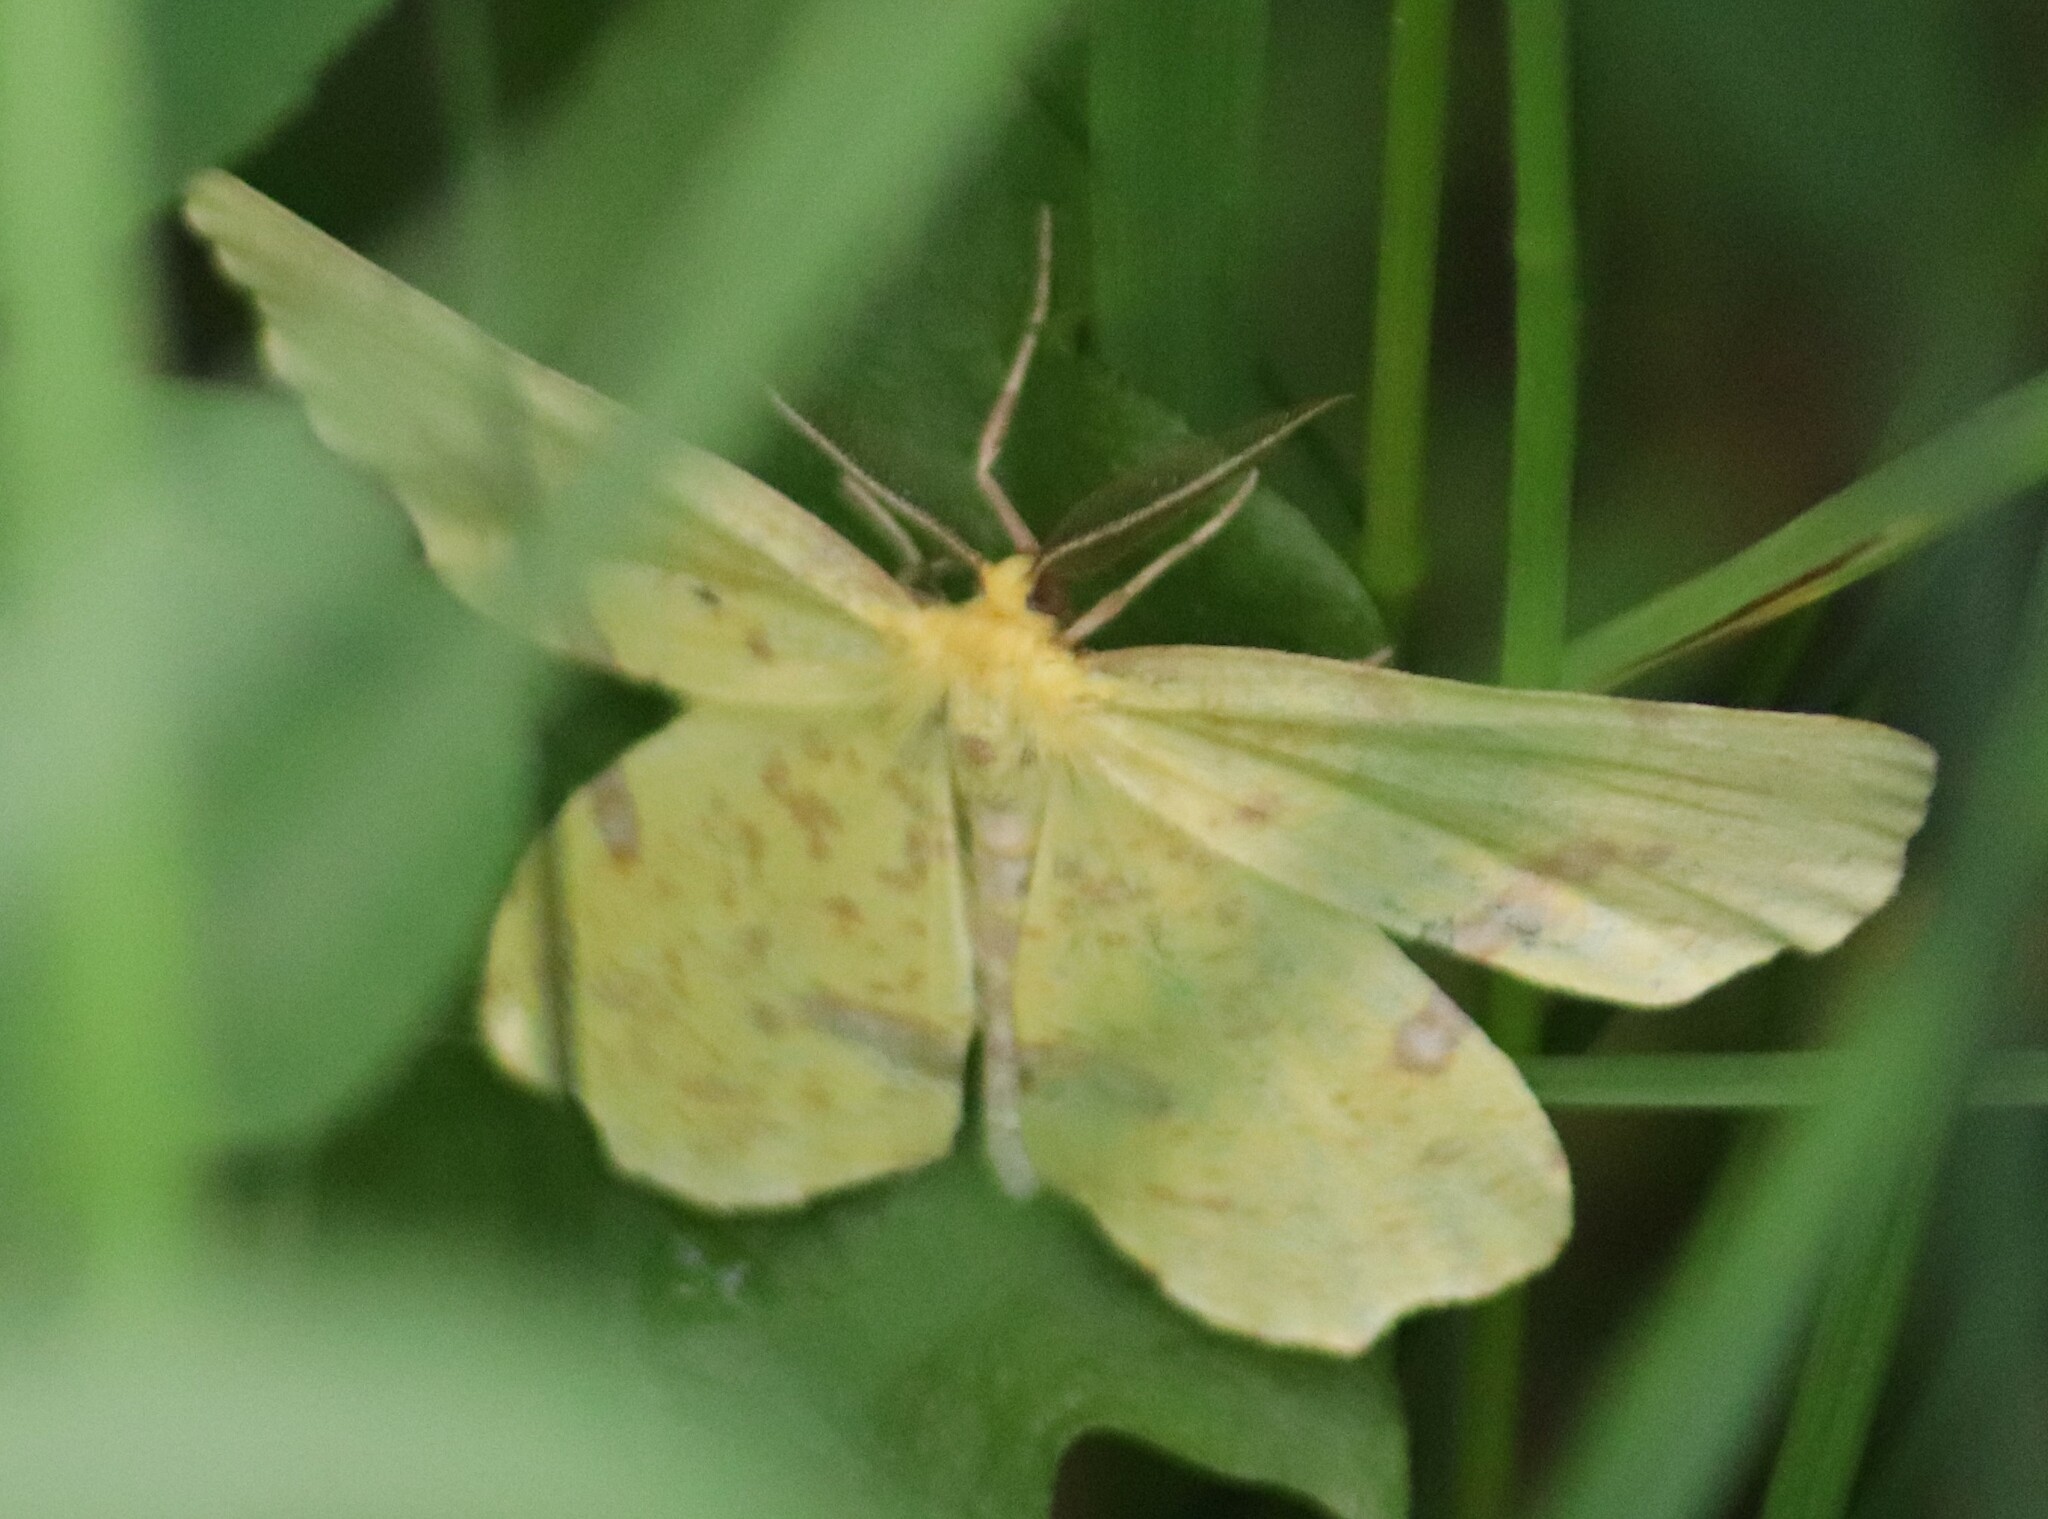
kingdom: Animalia
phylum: Arthropoda
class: Insecta
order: Lepidoptera
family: Geometridae
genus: Xanthotype
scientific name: Xanthotype
